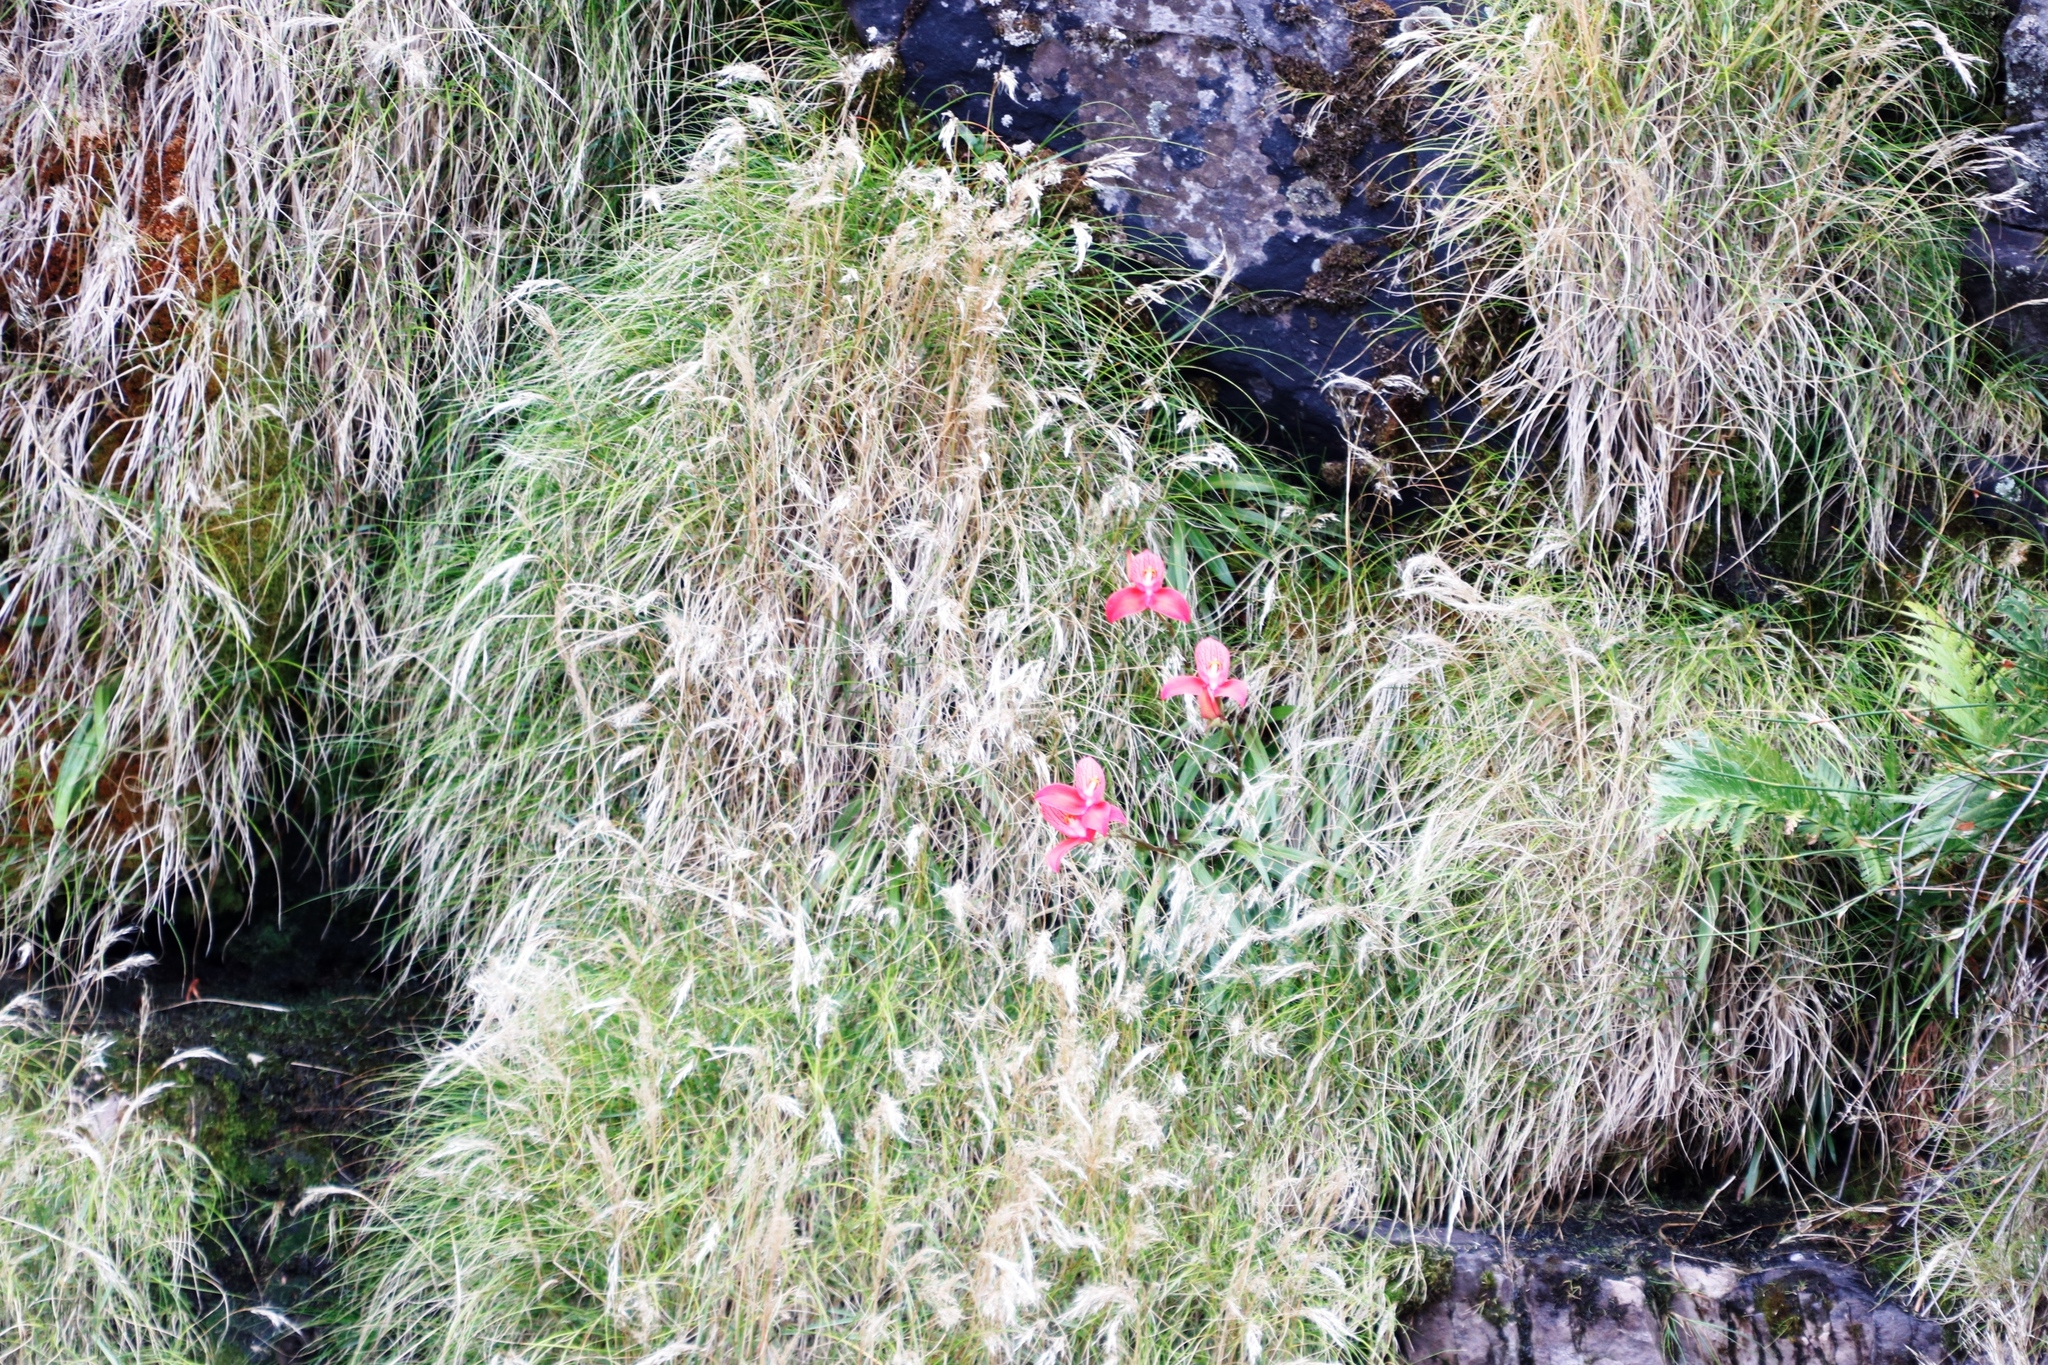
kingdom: Plantae
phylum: Tracheophyta
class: Liliopsida
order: Asparagales
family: Orchidaceae
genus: Disa
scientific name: Disa uniflora
